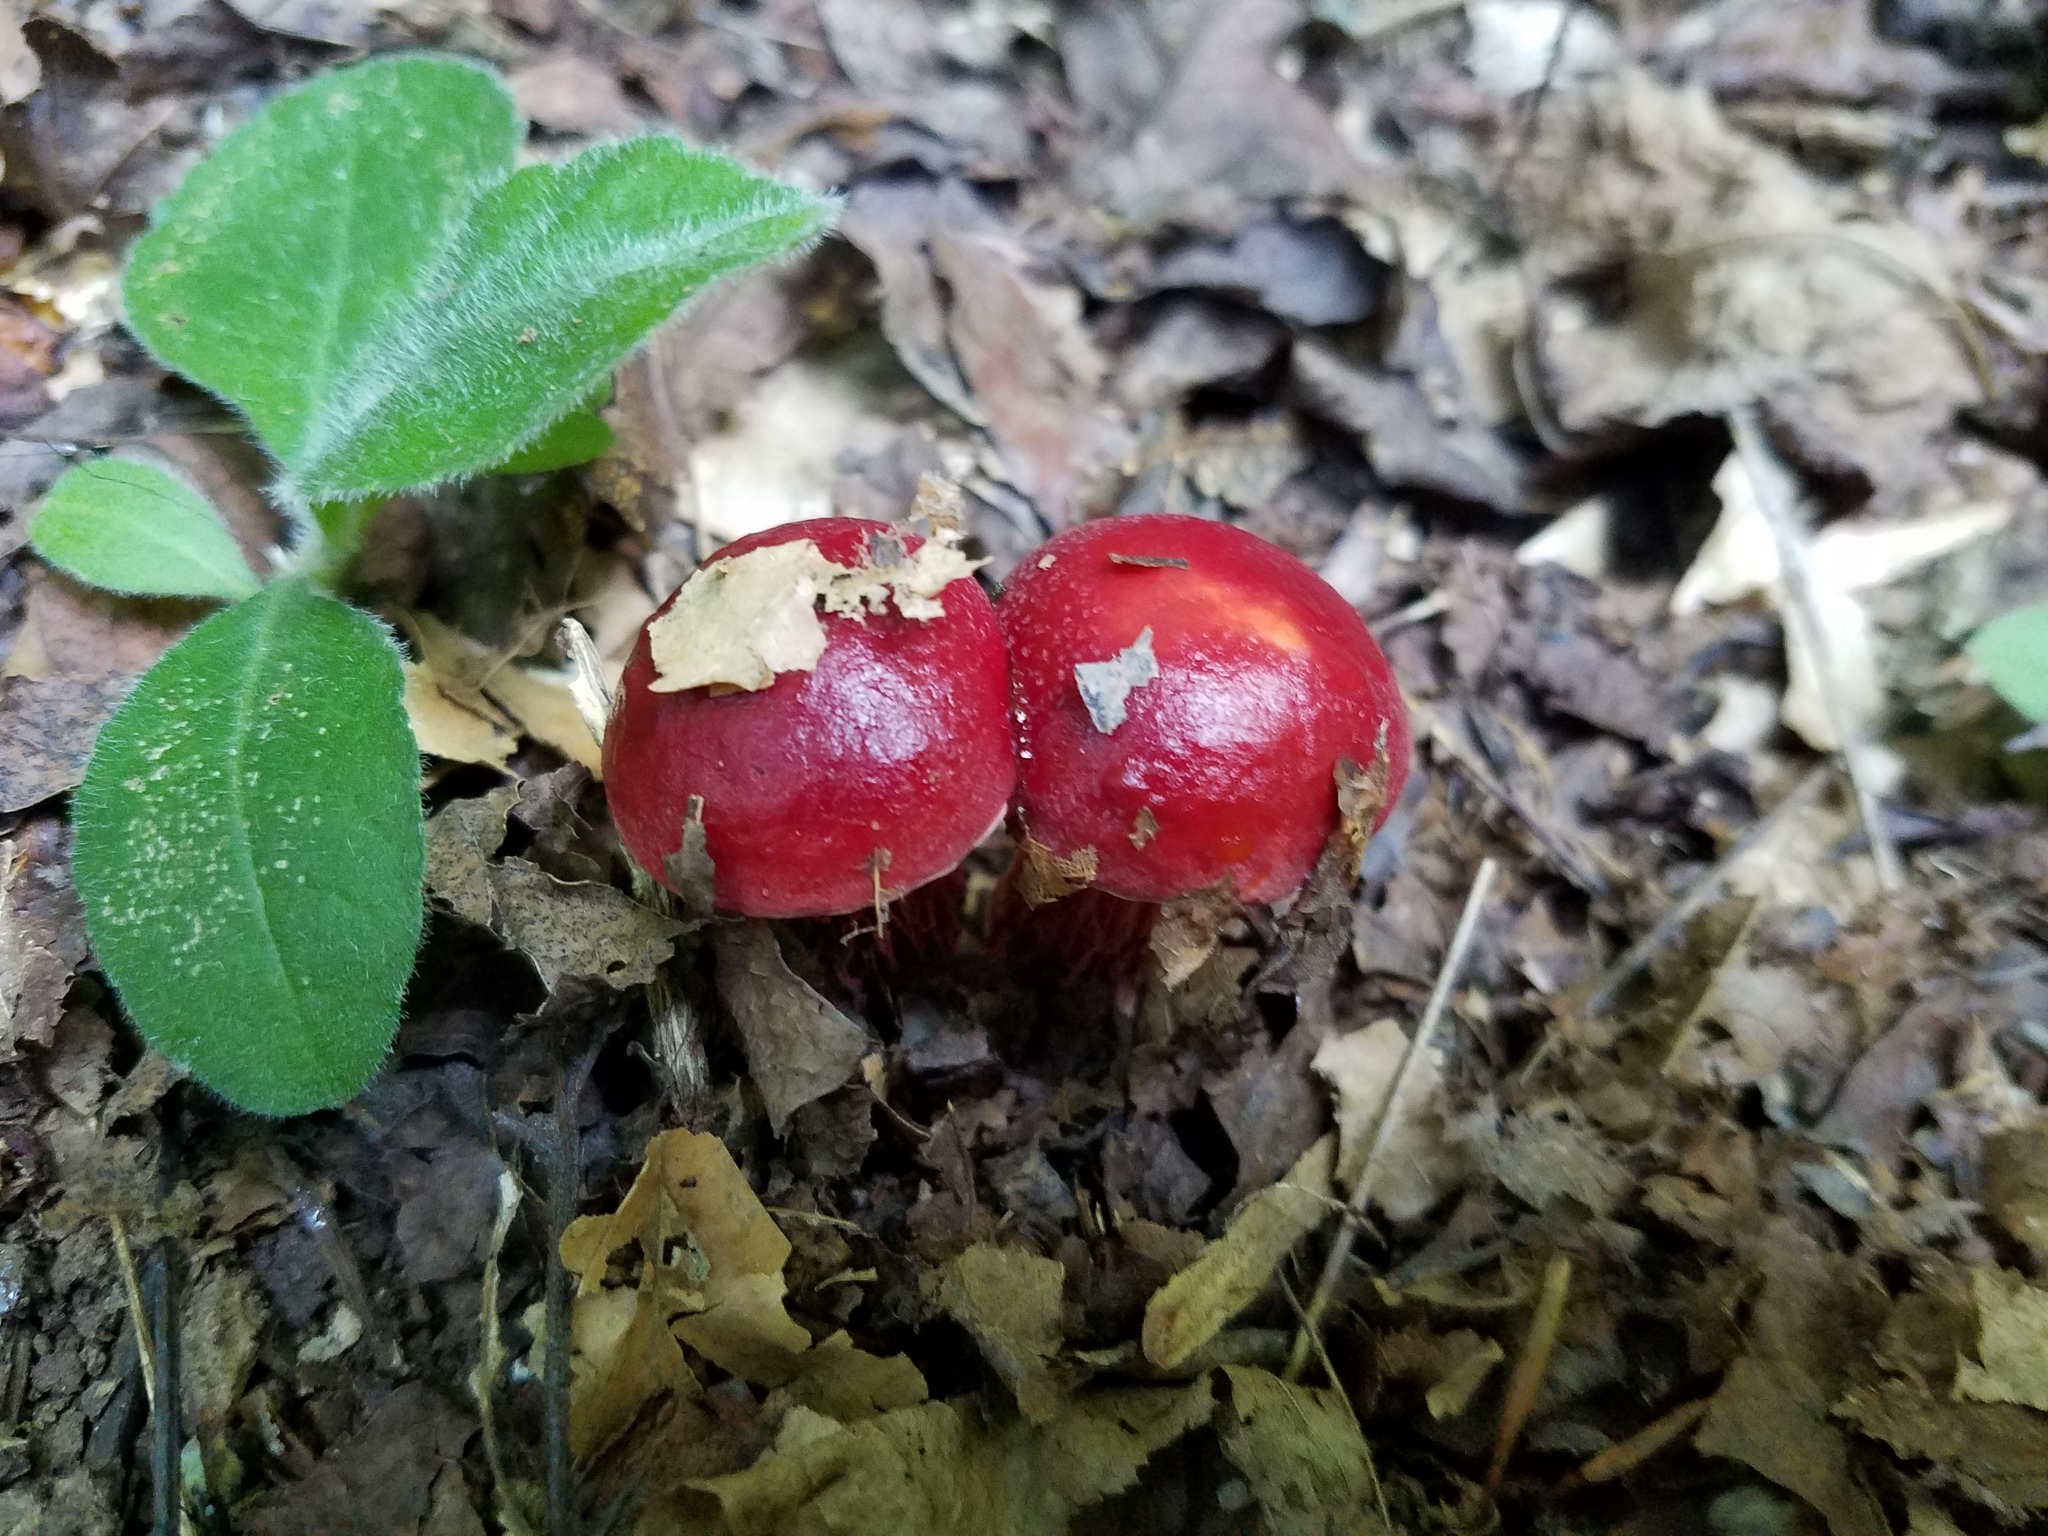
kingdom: Fungi
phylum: Basidiomycota
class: Agaricomycetes
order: Boletales
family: Boletaceae
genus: Butyriboletus
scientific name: Butyriboletus frostii
